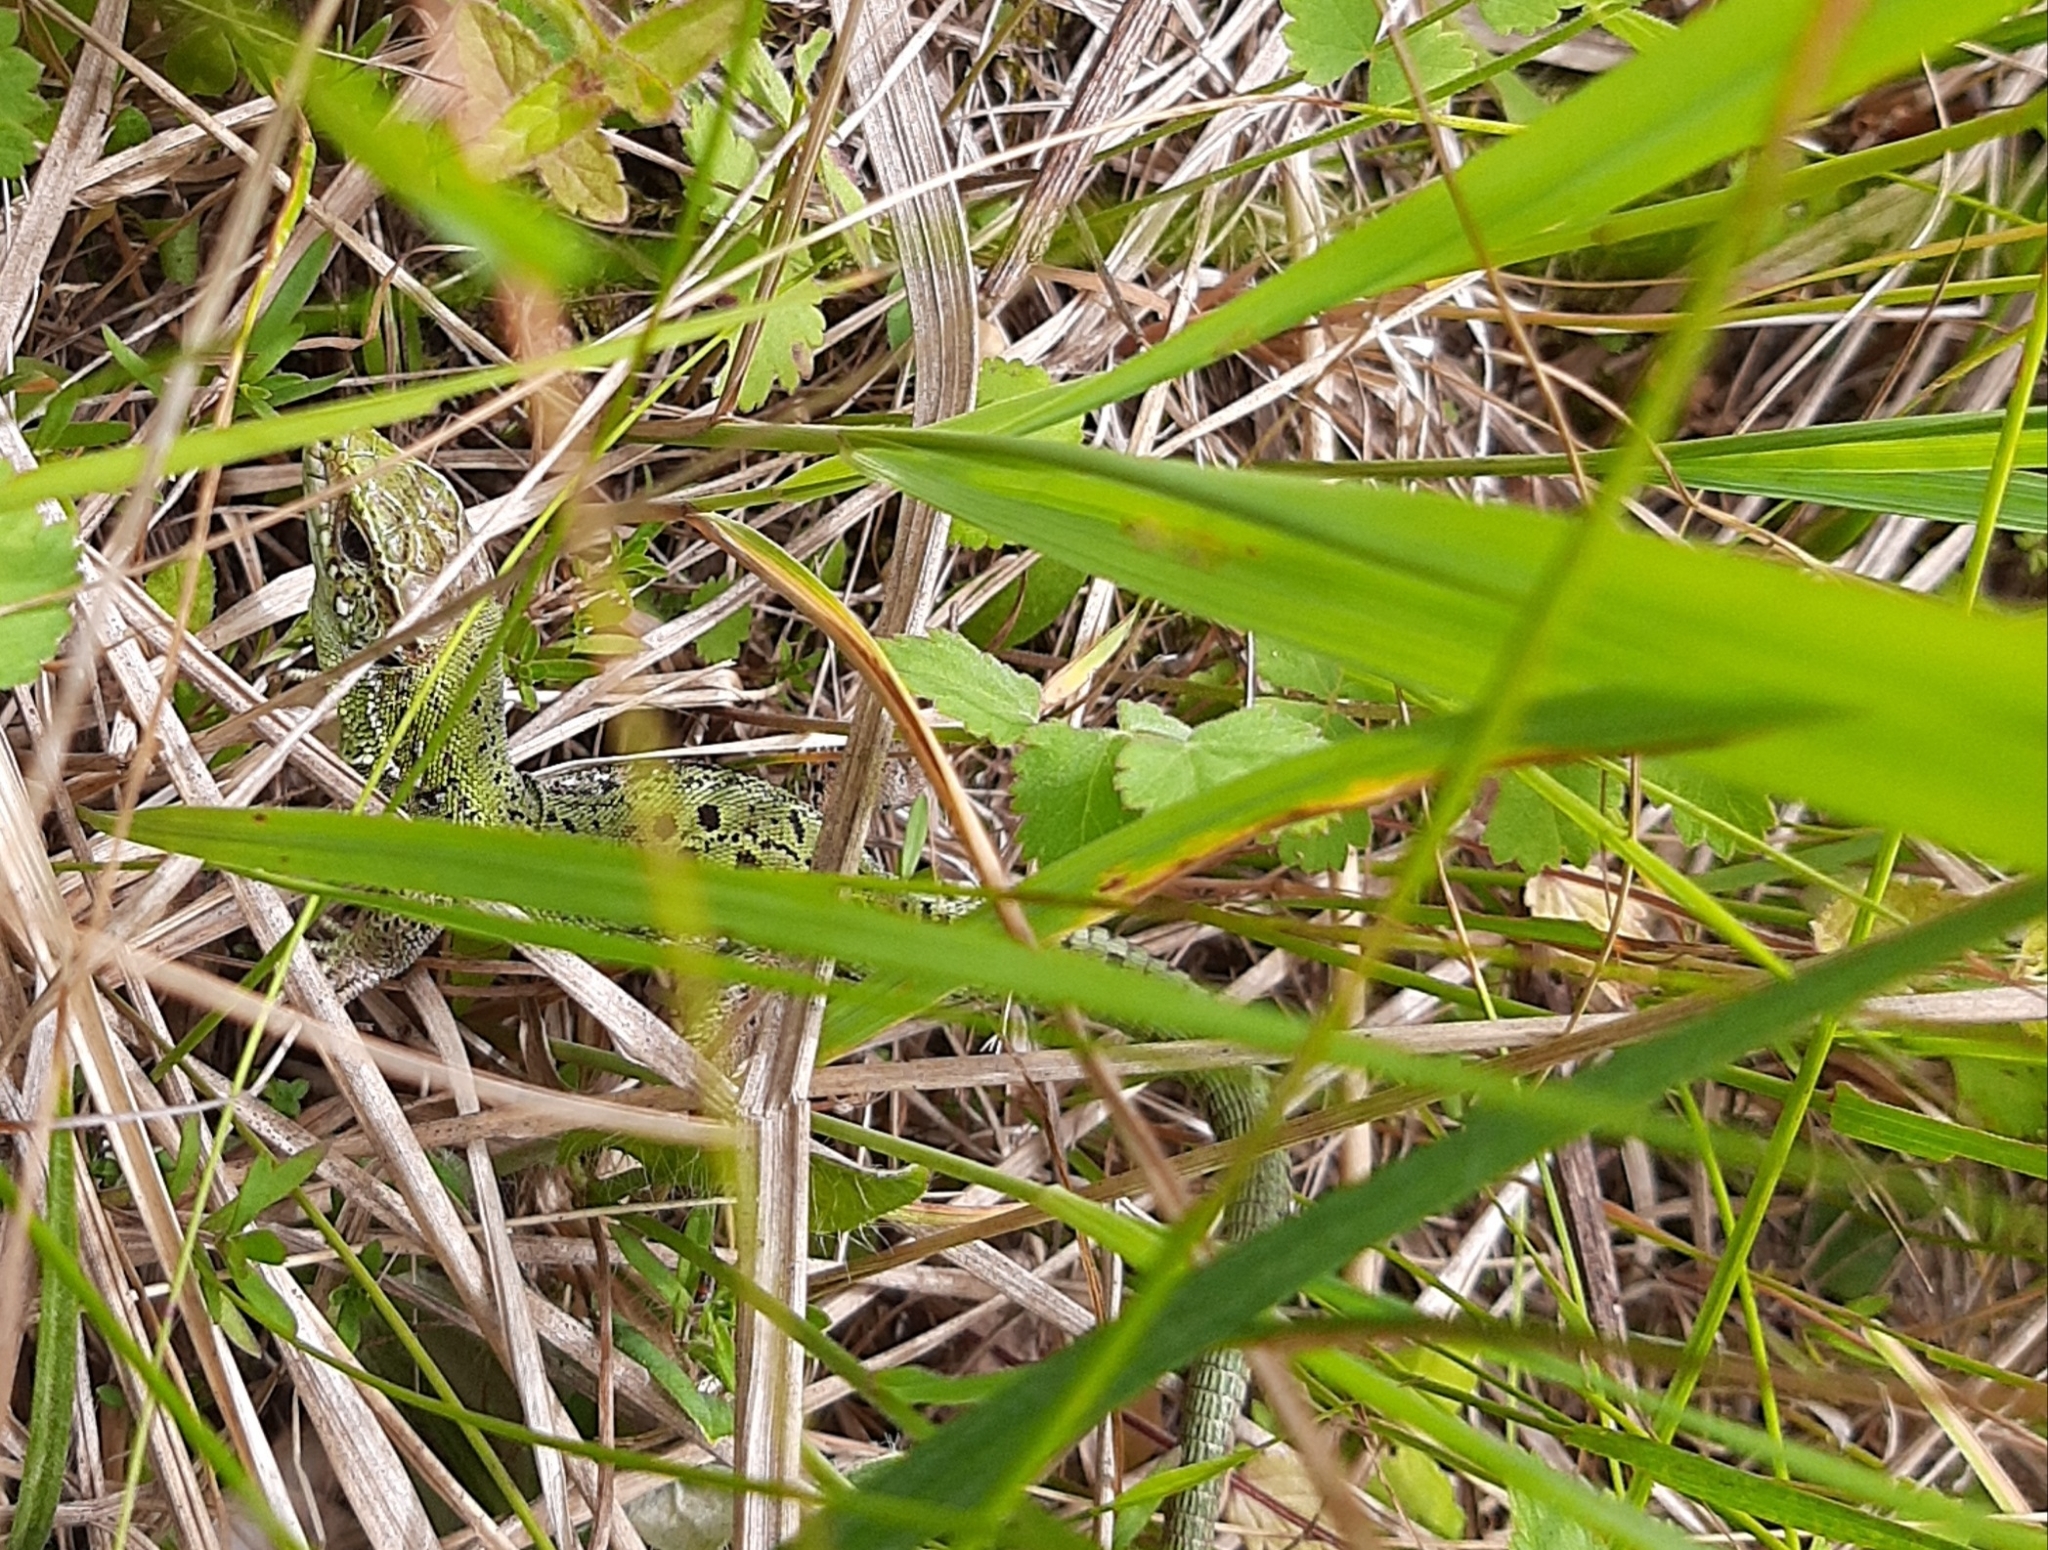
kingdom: Animalia
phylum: Chordata
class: Squamata
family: Lacertidae
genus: Lacerta
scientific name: Lacerta agilis
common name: Sand lizard
